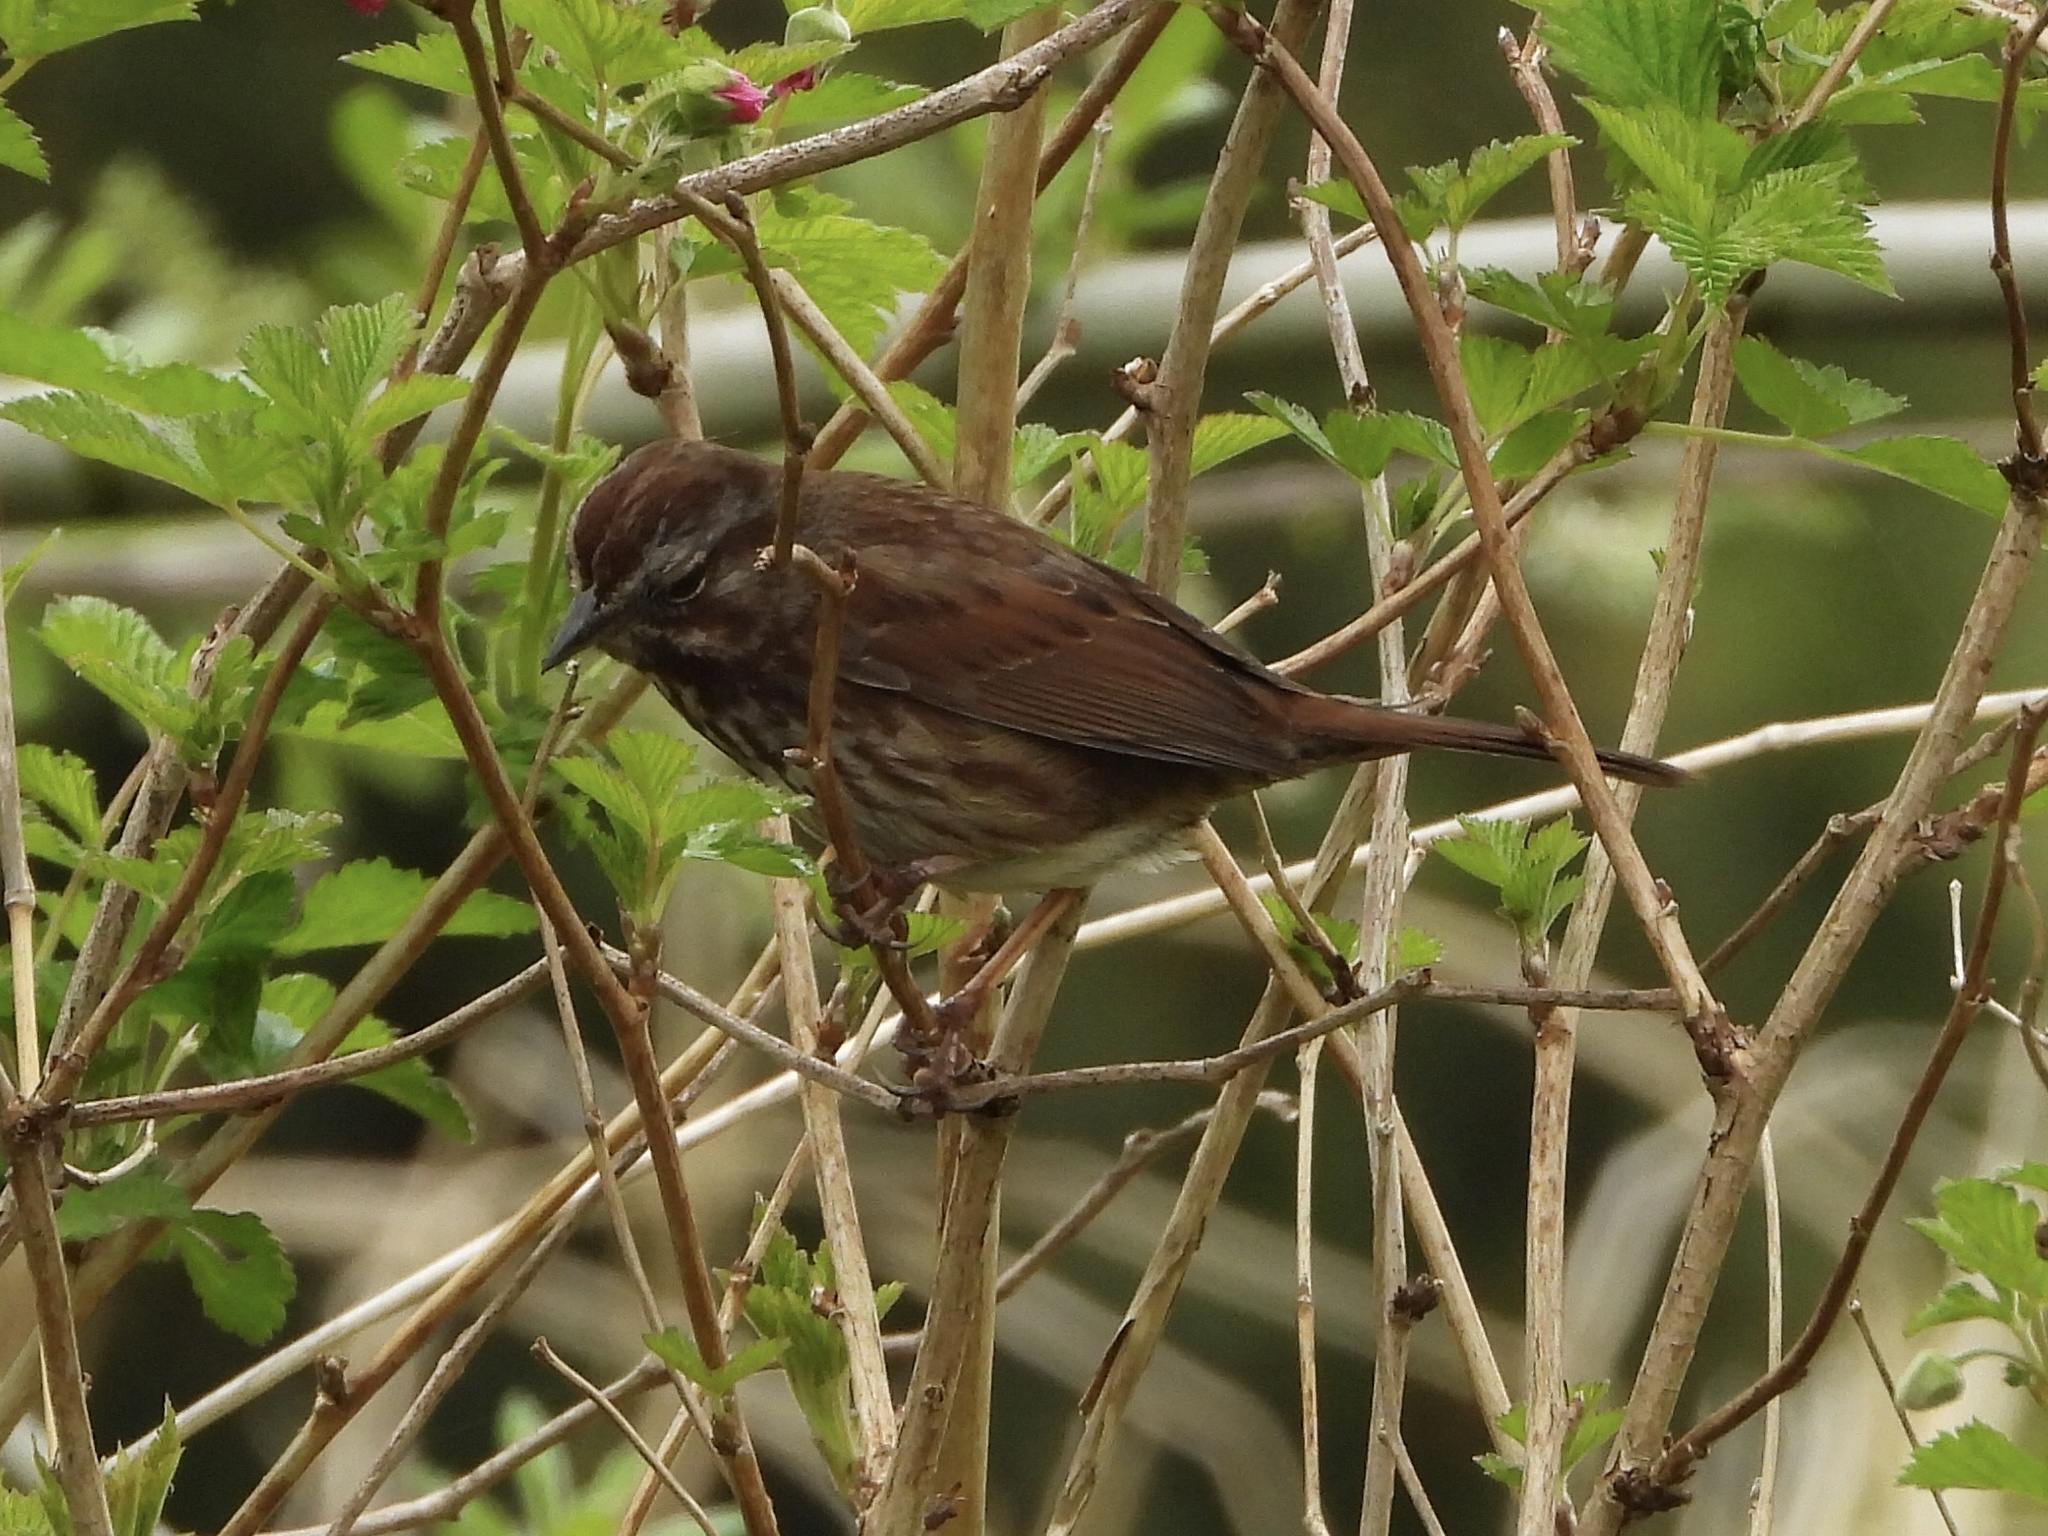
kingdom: Animalia
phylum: Chordata
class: Aves
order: Passeriformes
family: Passerellidae
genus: Melospiza
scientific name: Melospiza melodia
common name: Song sparrow
